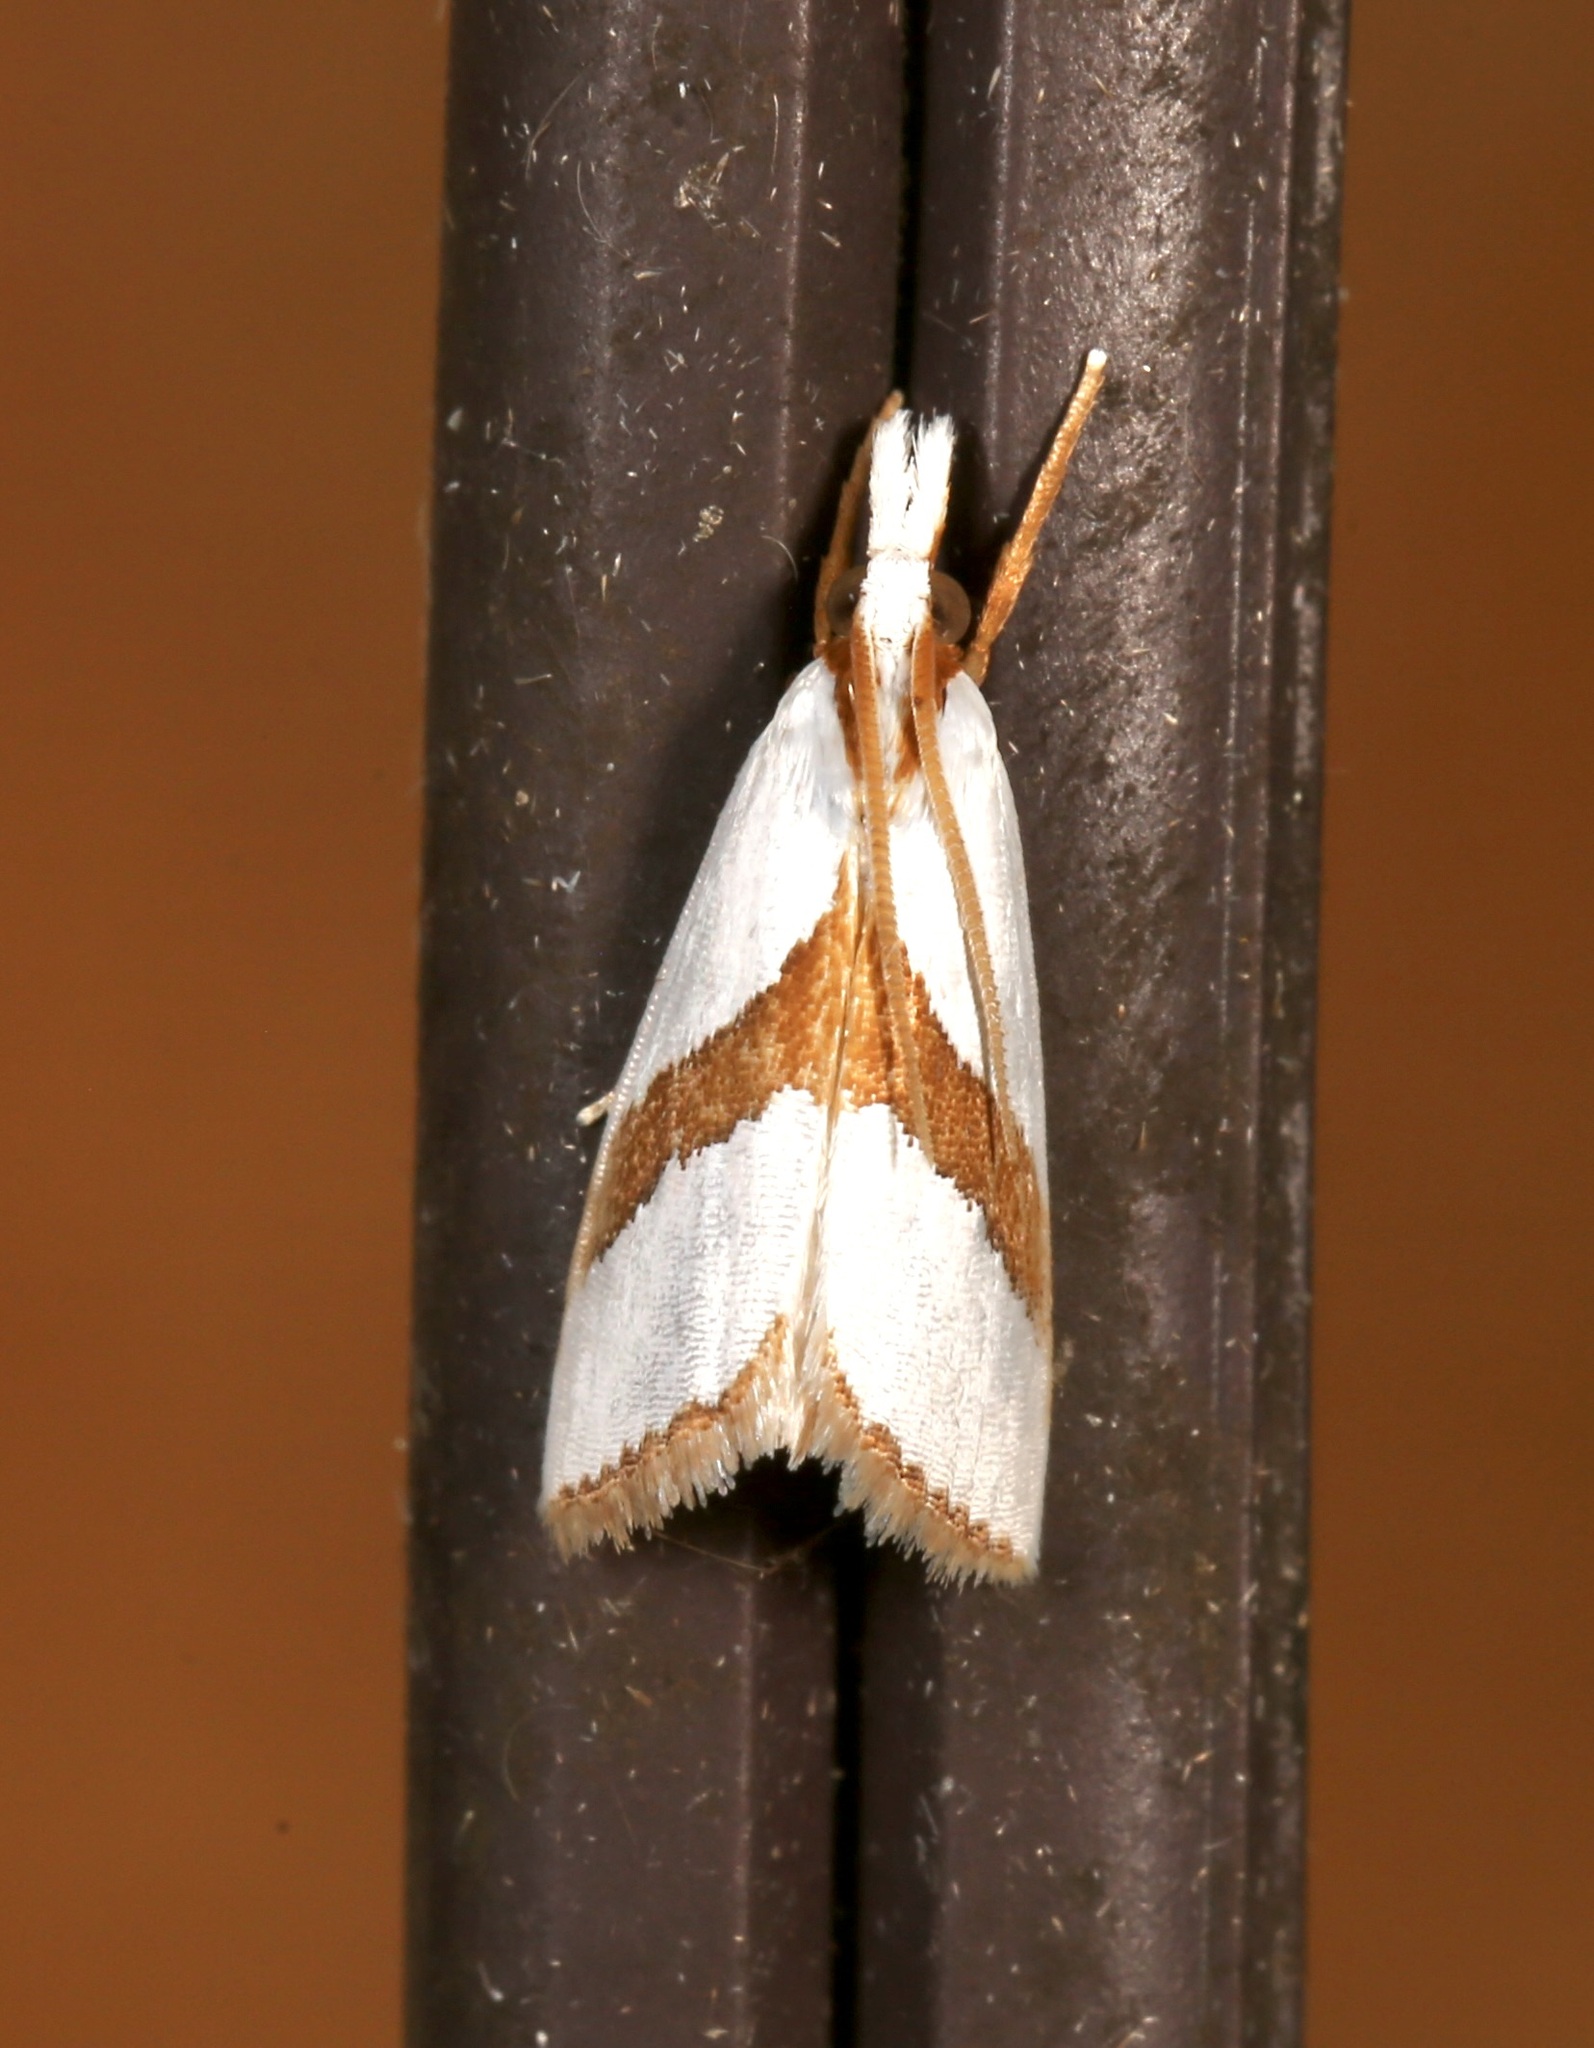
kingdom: Animalia
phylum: Arthropoda
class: Insecta
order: Lepidoptera
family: Crambidae
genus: Vaxi
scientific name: Vaxi critica
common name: Straight-lined vaxi moth
